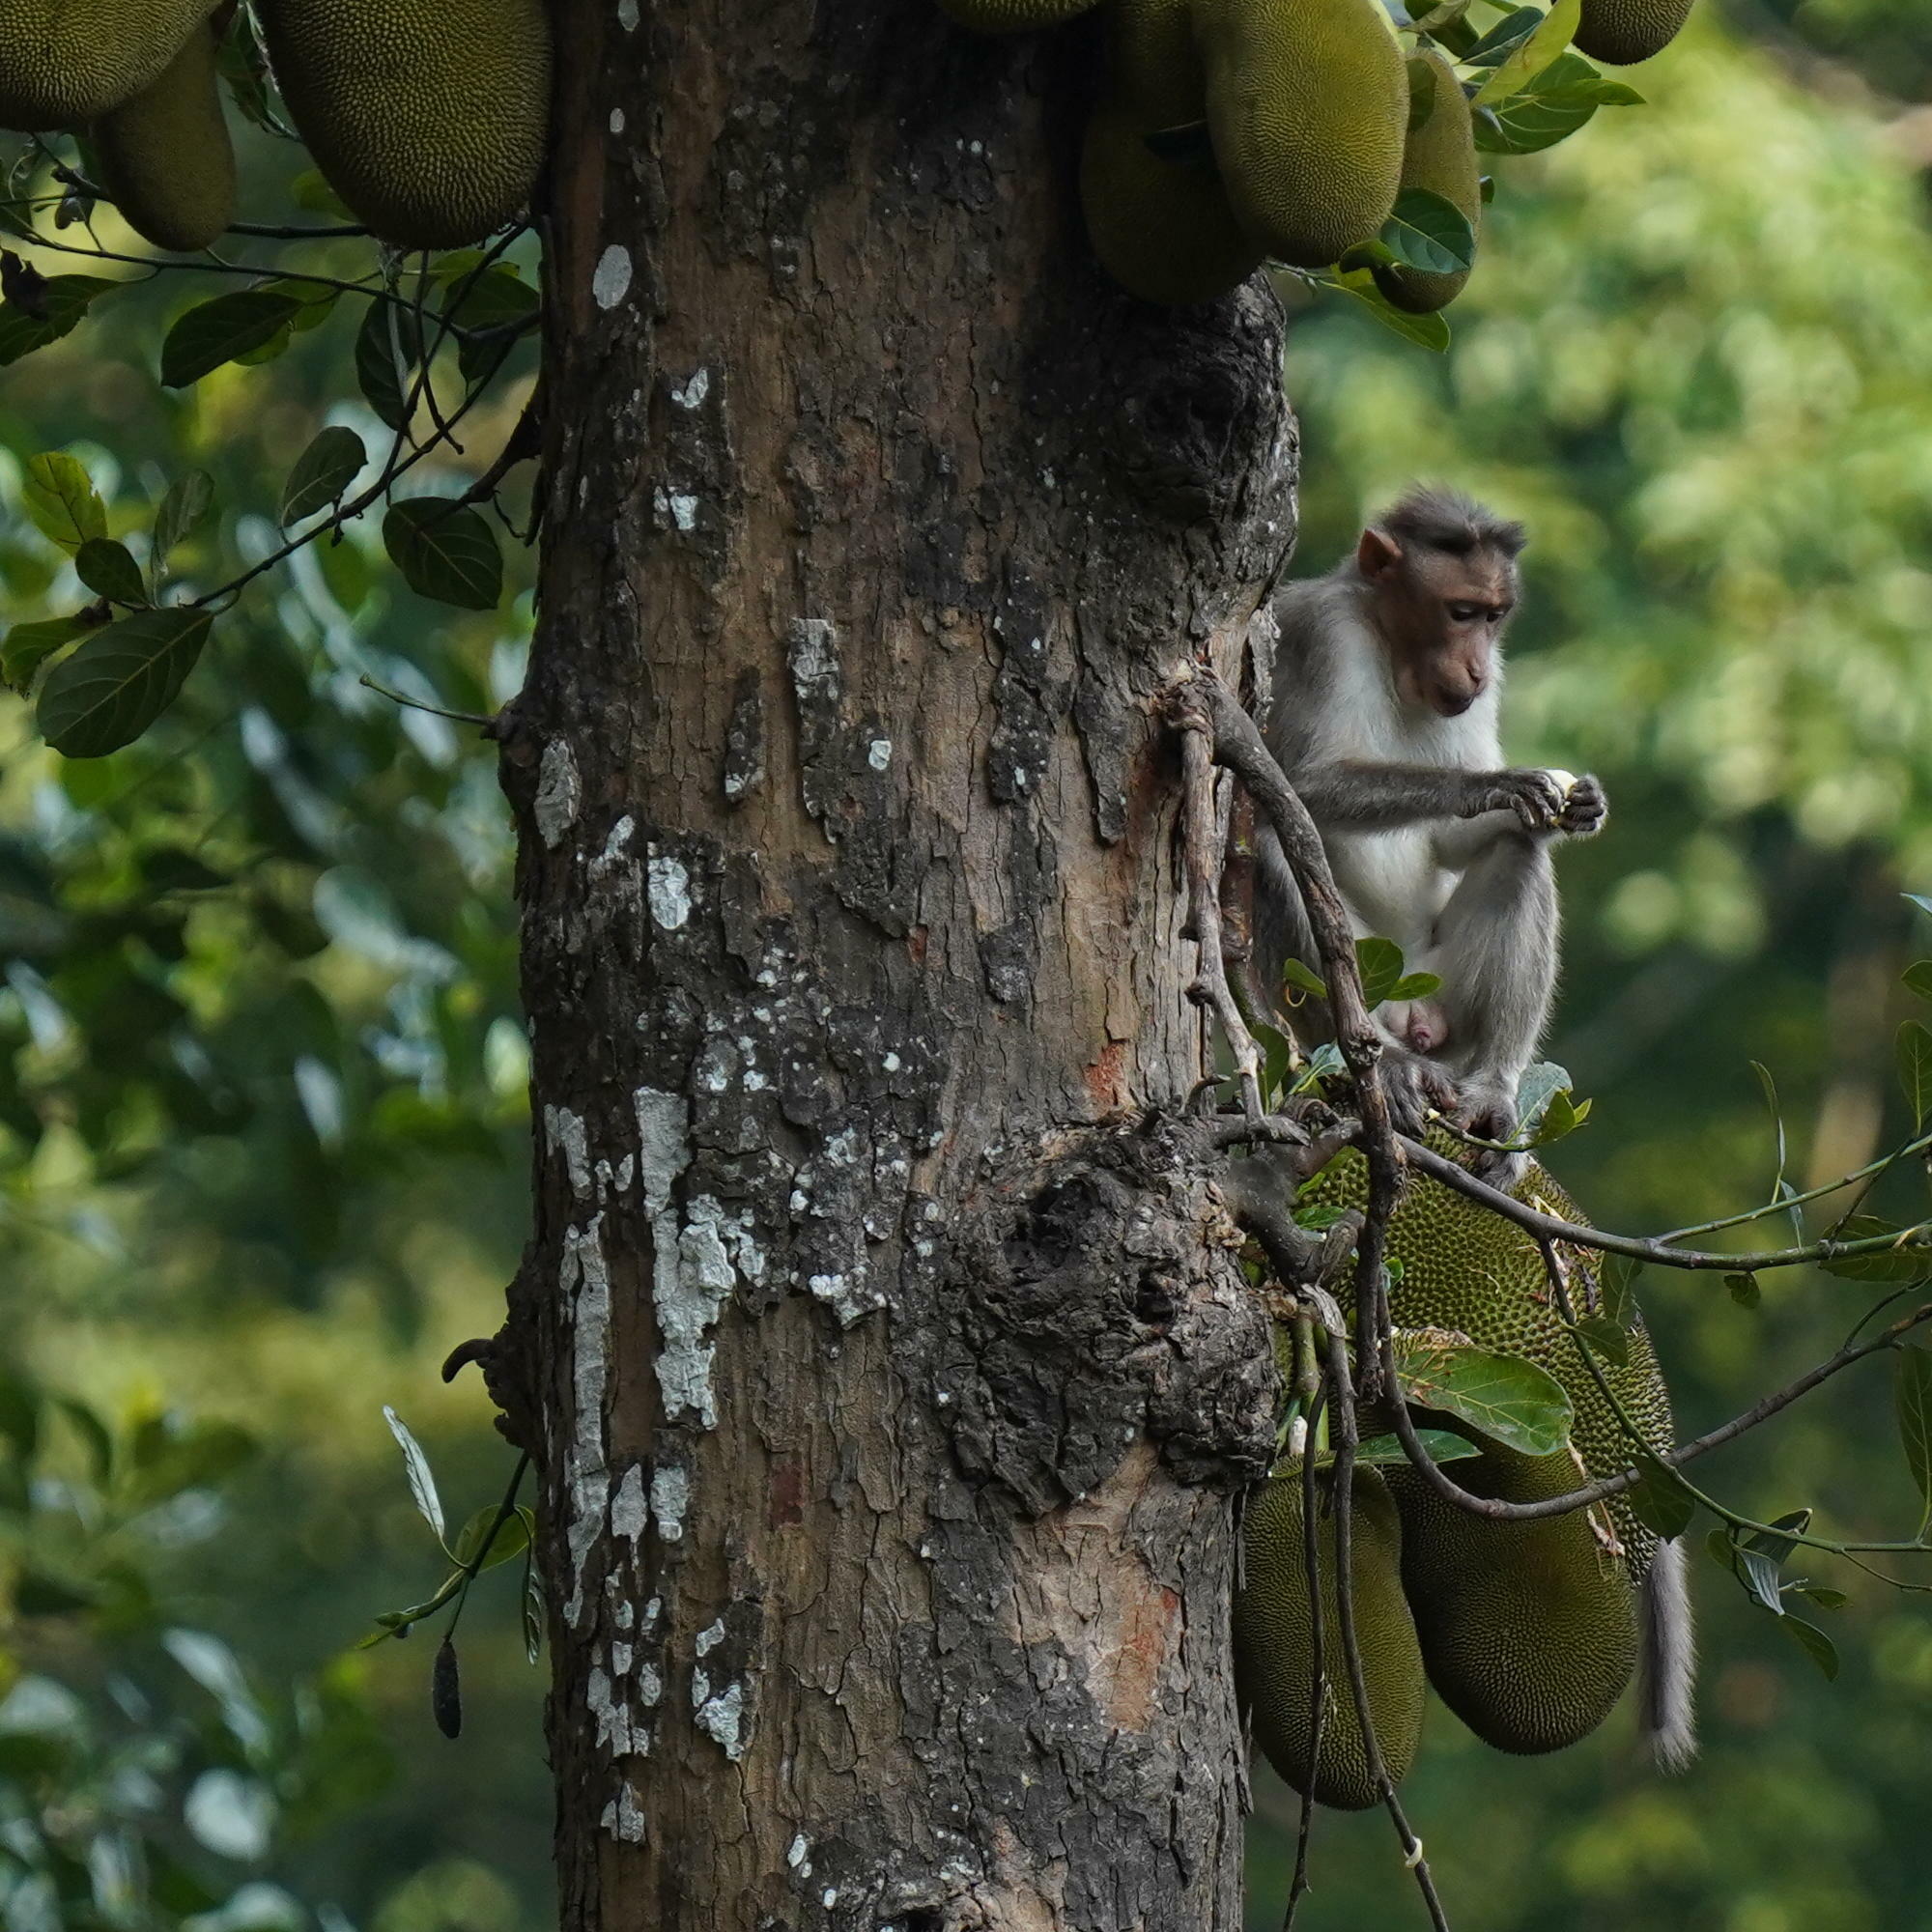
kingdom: Animalia
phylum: Chordata
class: Mammalia
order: Primates
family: Cercopithecidae
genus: Macaca
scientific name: Macaca radiata
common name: Bonnet macaque
